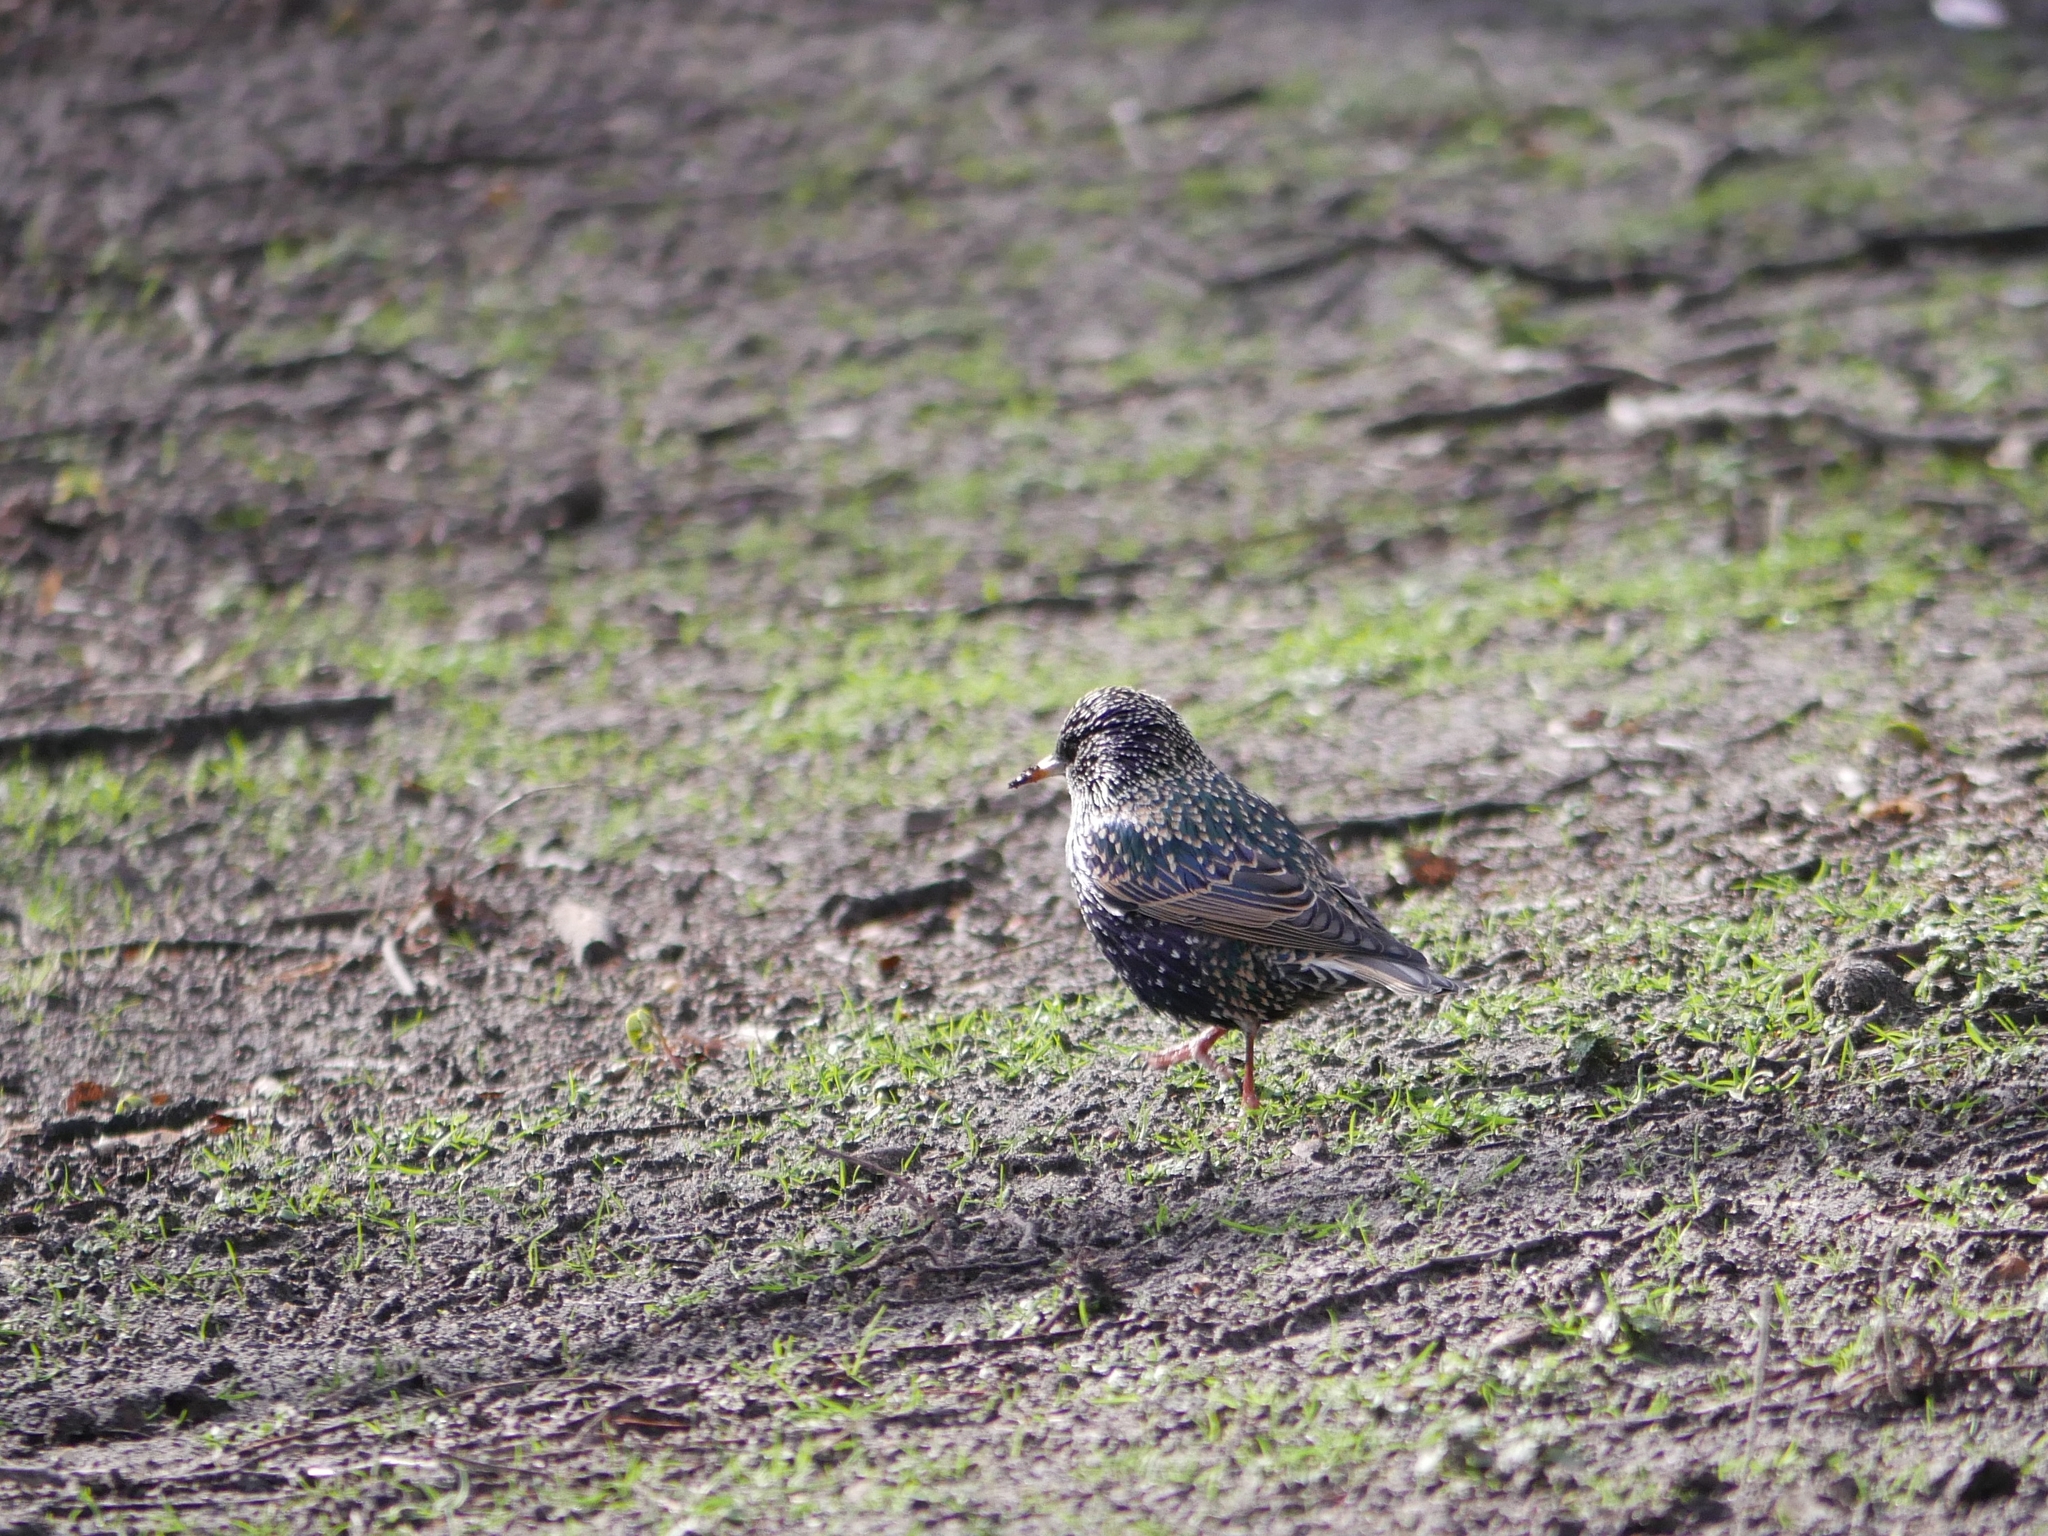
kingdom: Animalia
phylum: Chordata
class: Aves
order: Passeriformes
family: Sturnidae
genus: Sturnus
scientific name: Sturnus vulgaris
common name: Common starling
